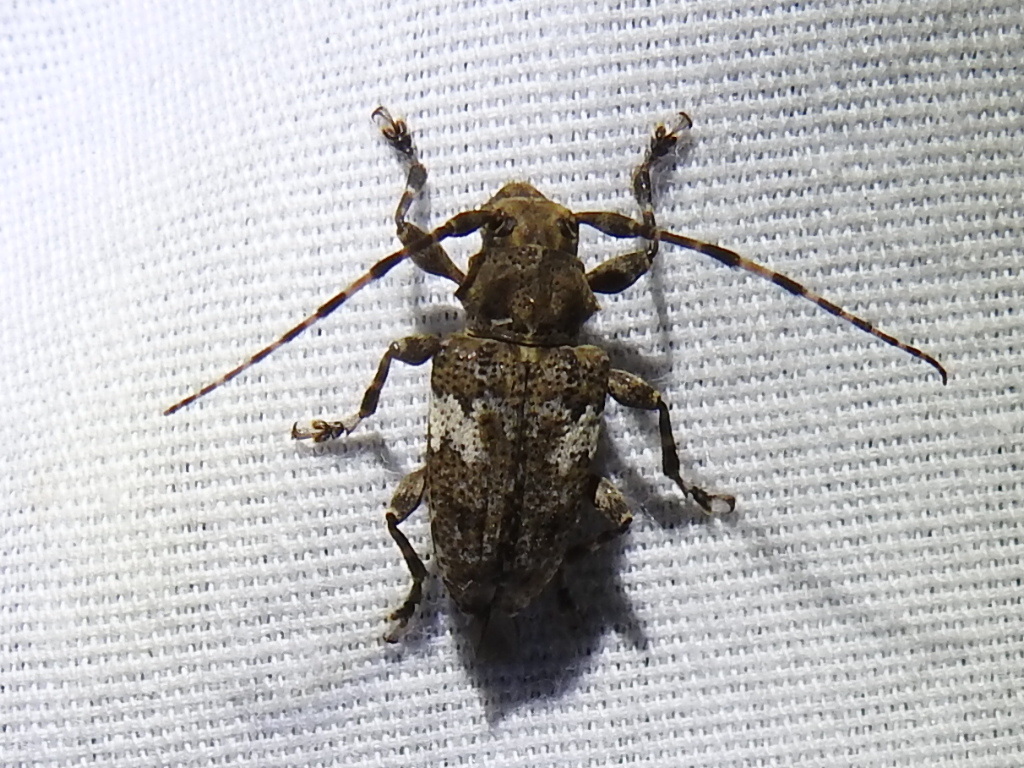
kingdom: Animalia
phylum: Arthropoda
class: Insecta
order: Coleoptera
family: Cerambycidae
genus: Acanthoderes
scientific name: Acanthoderes quadrigibba
